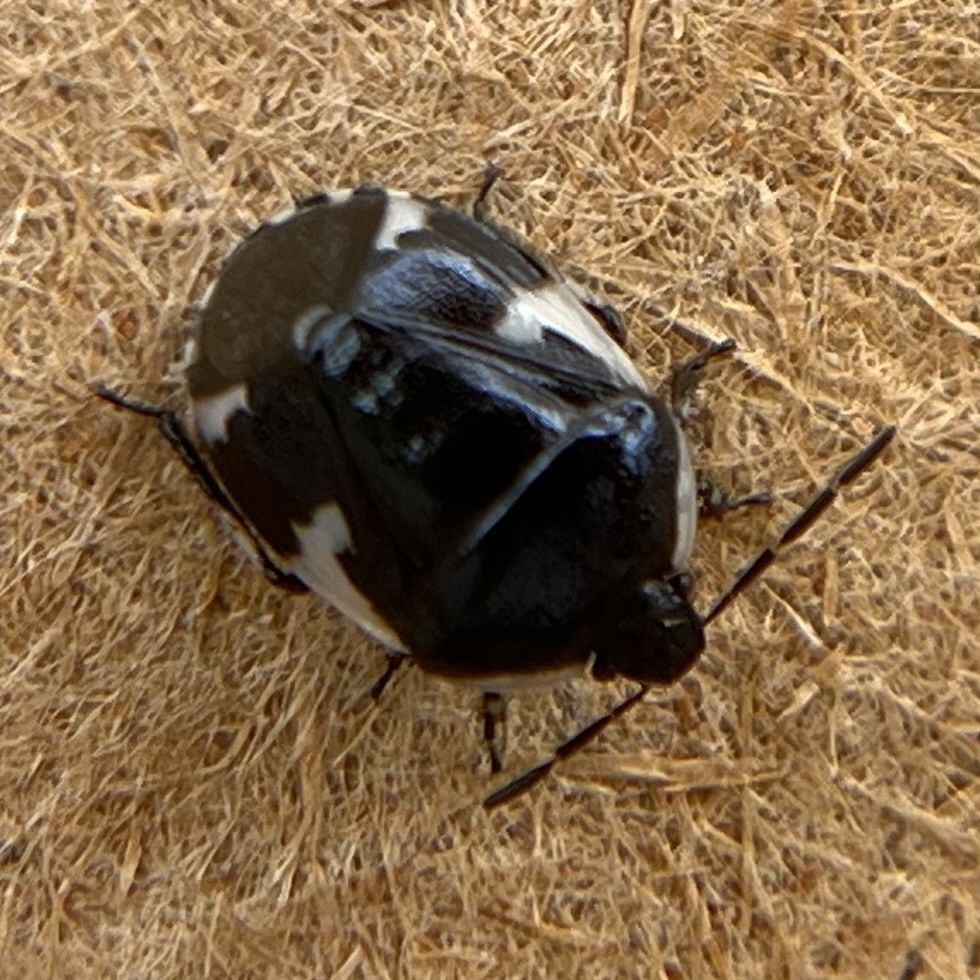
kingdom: Animalia
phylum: Arthropoda
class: Insecta
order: Hemiptera
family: Cydnidae
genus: Tritomegas
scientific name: Tritomegas sexmaculatus
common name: Rambur's pied shieldbug
